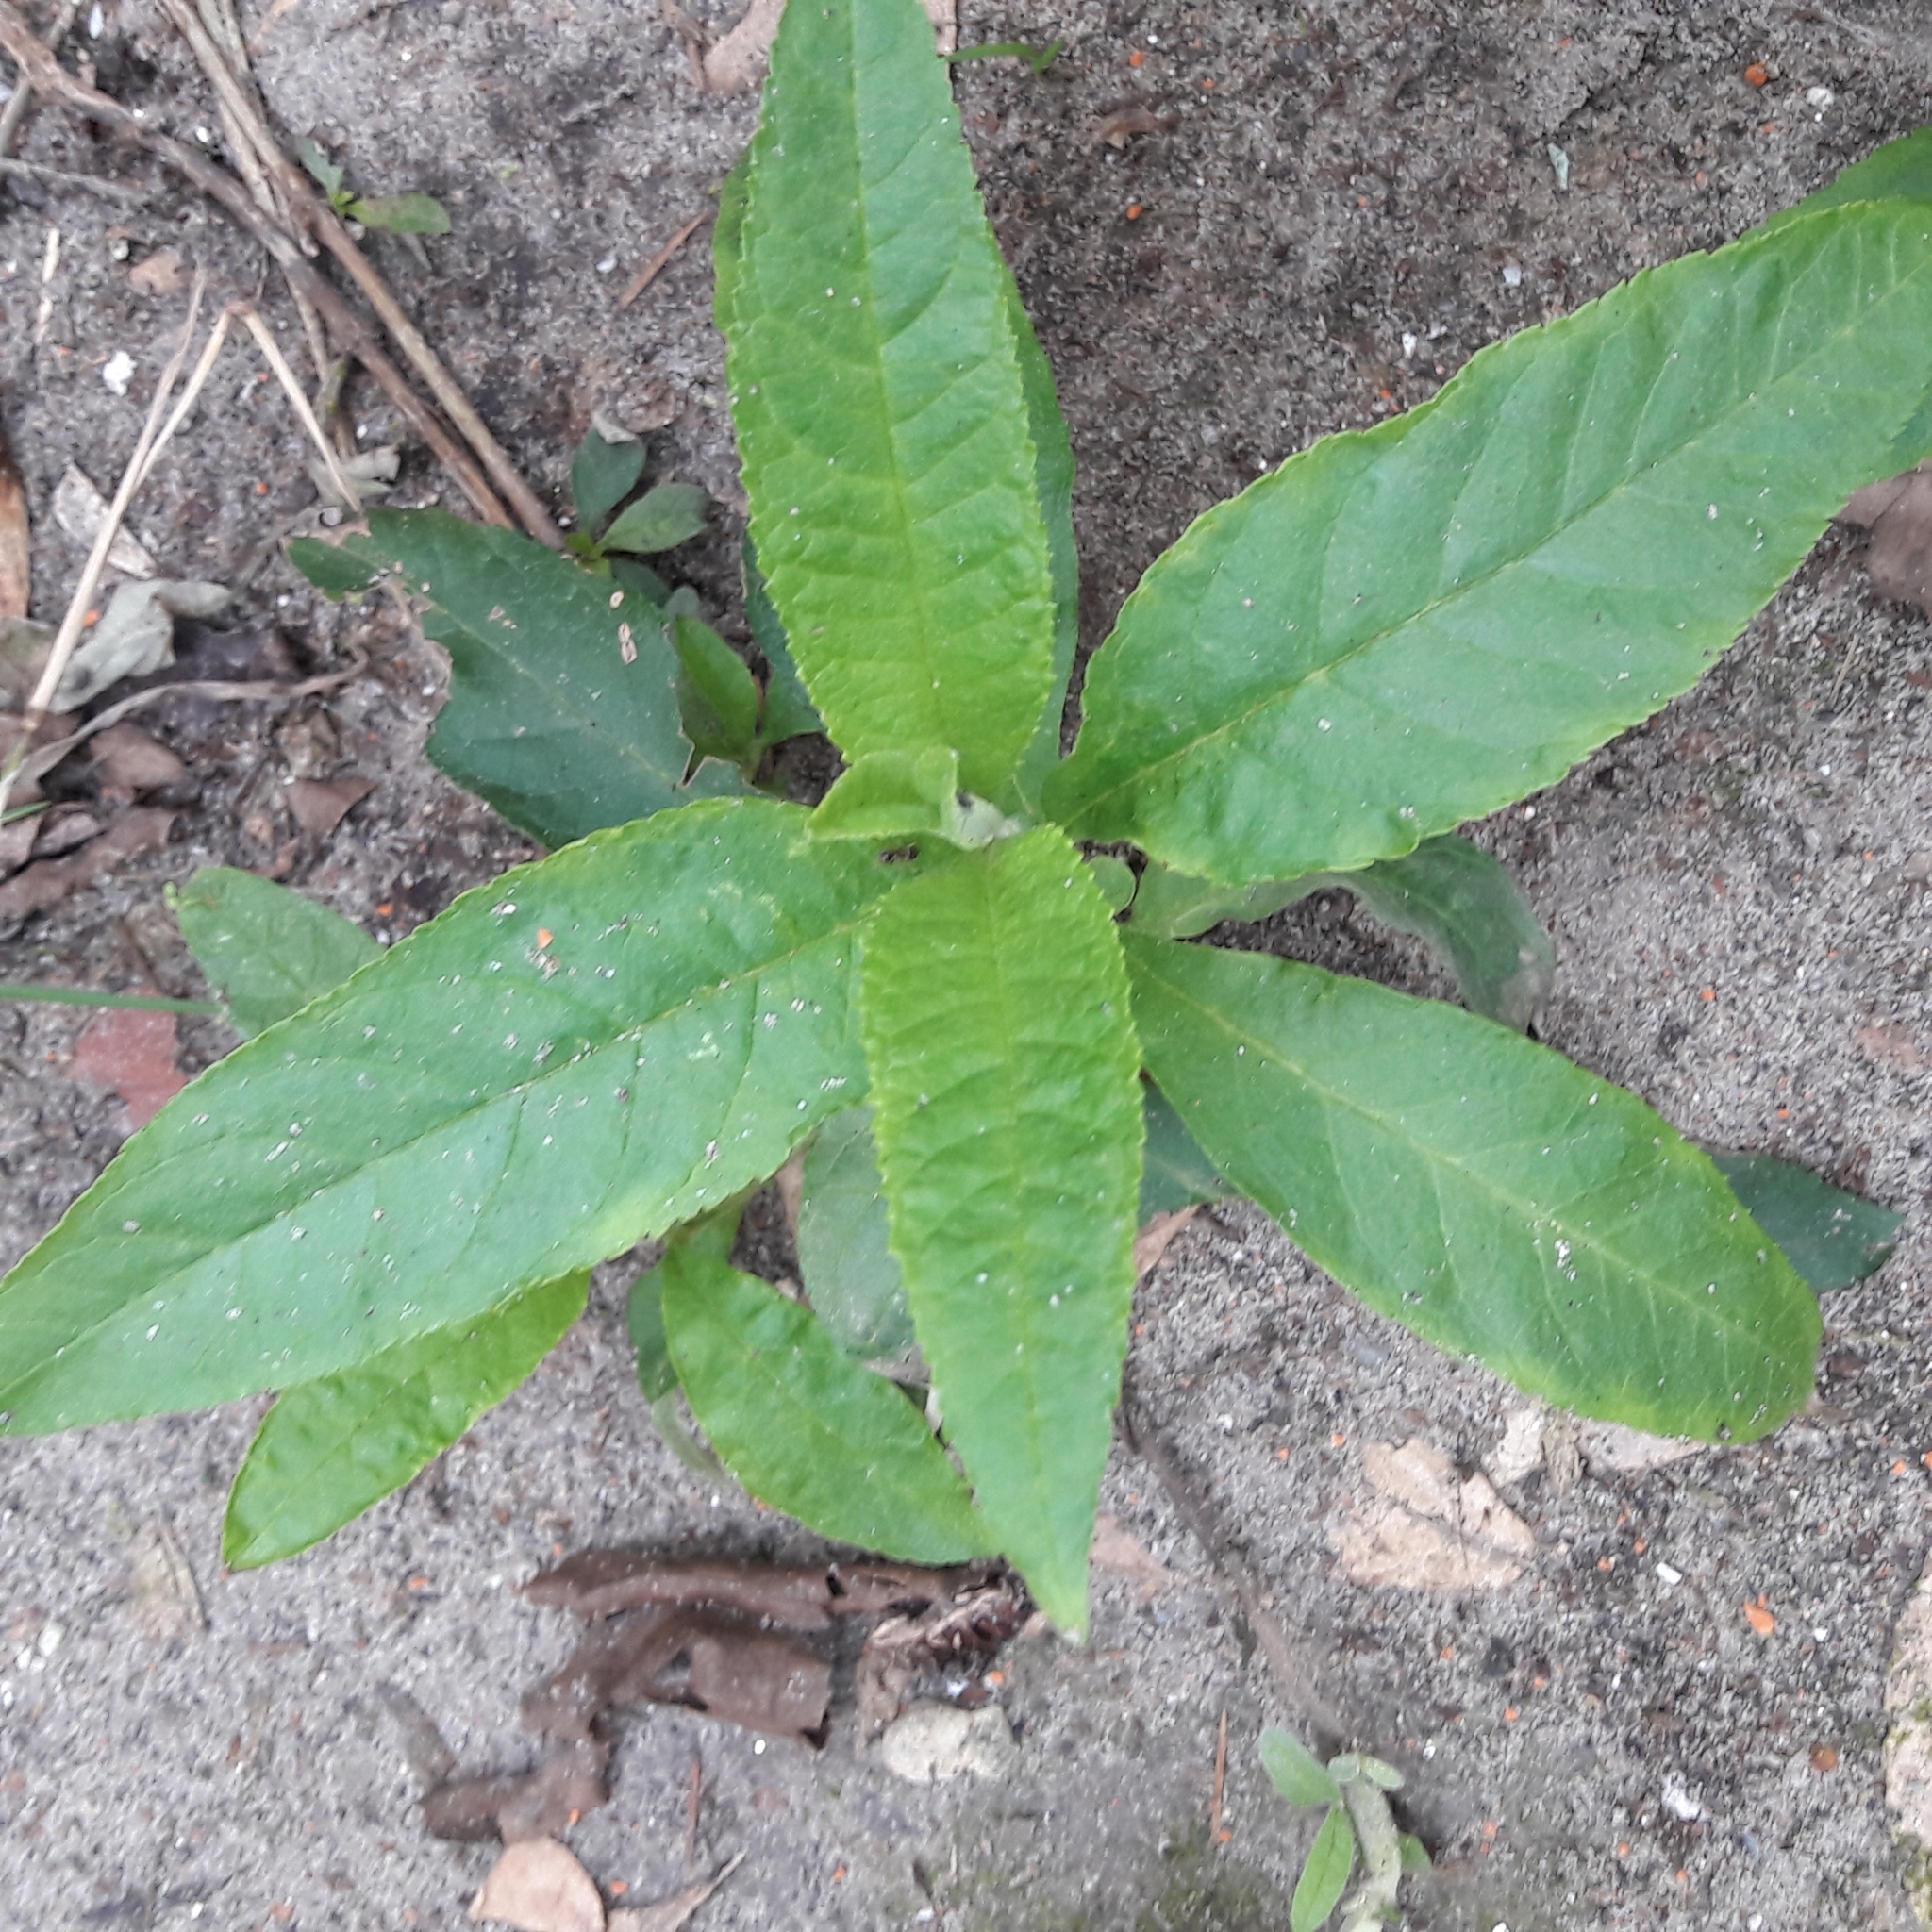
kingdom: Plantae
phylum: Tracheophyta
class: Magnoliopsida
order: Lamiales
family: Scrophulariaceae
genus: Buddleja
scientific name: Buddleja davidii
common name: Butterfly-bush
